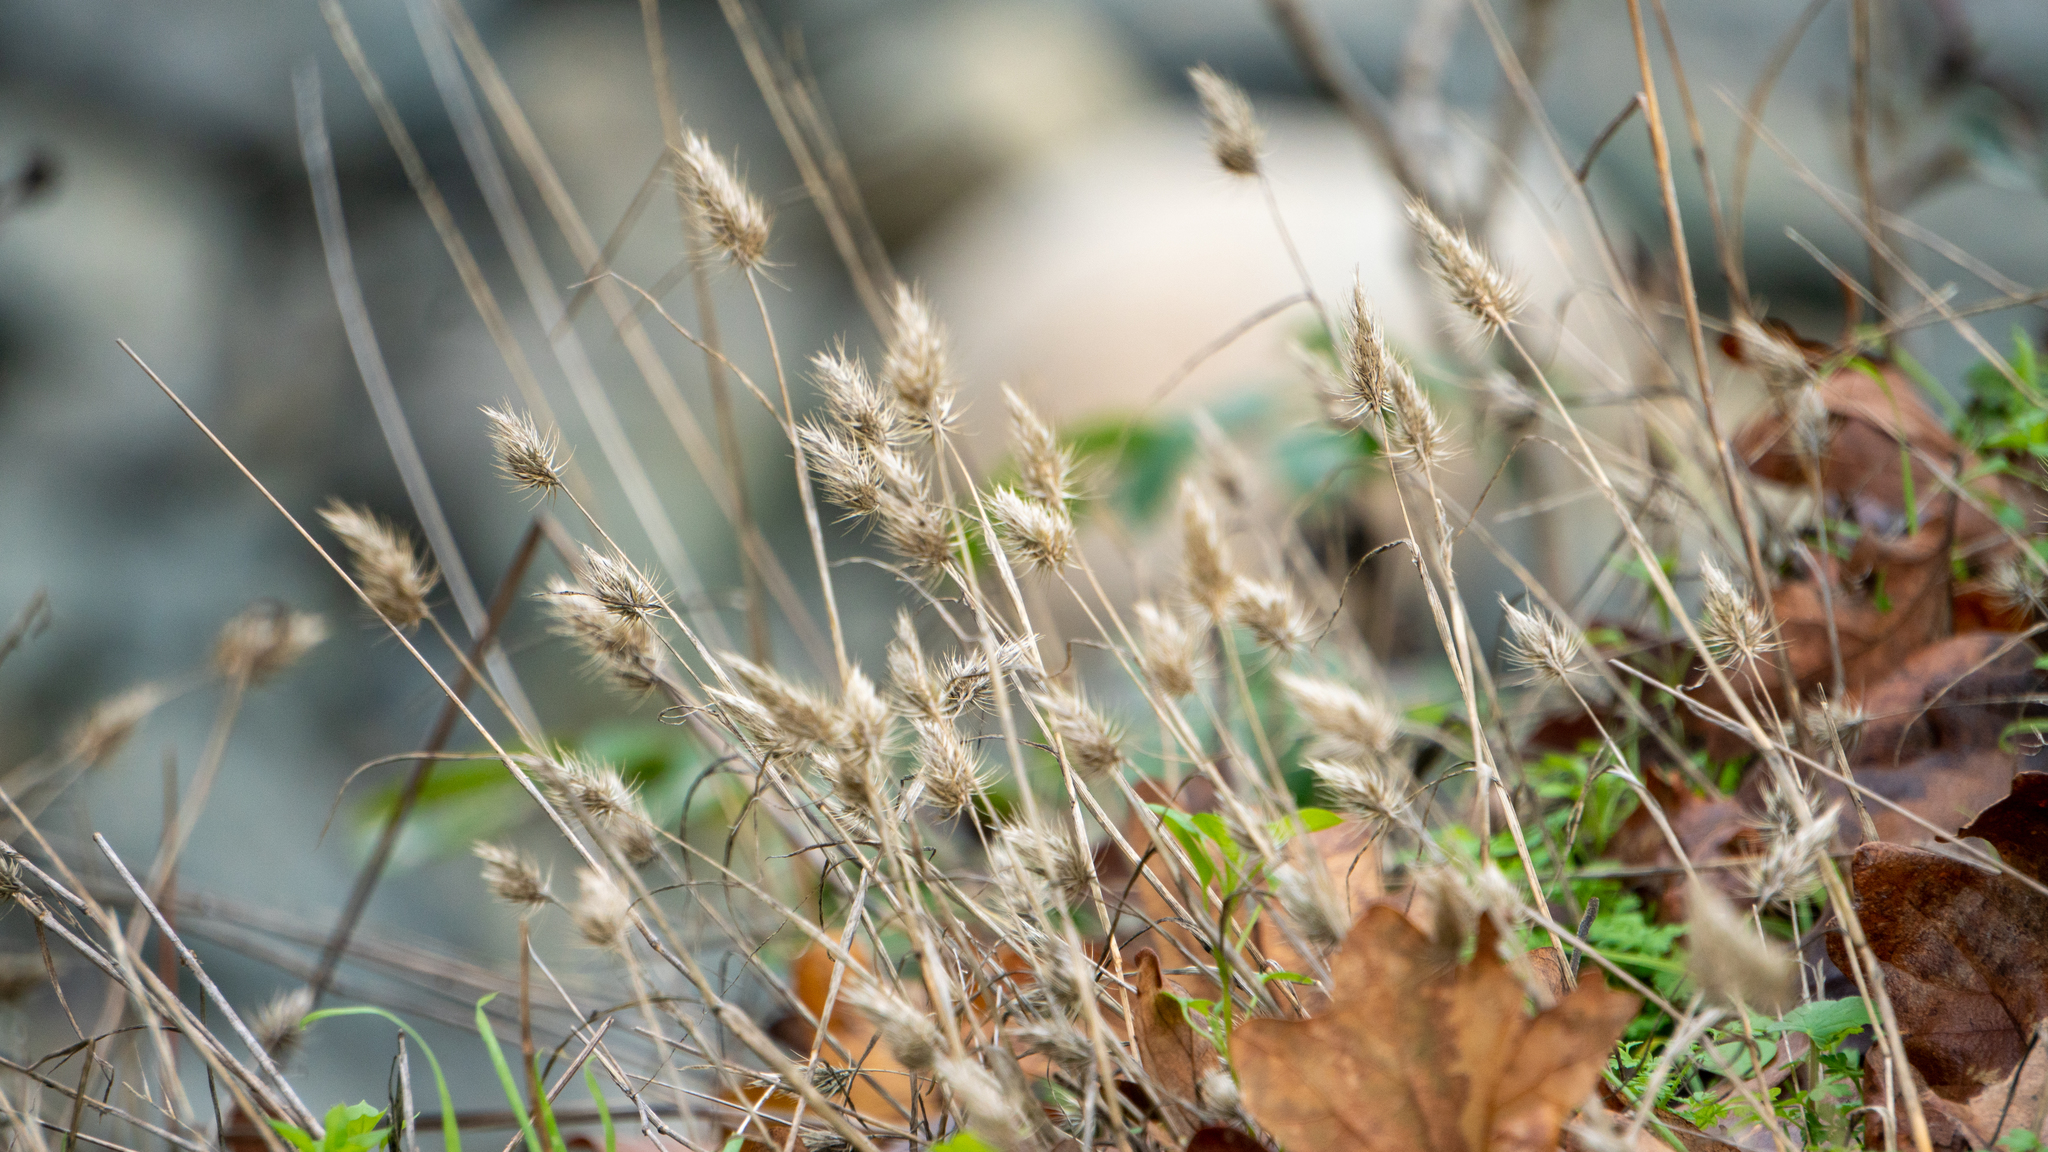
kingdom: Plantae
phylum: Tracheophyta
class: Liliopsida
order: Poales
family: Poaceae
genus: Cynosurus
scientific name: Cynosurus echinatus
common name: Rough dog's-tail
